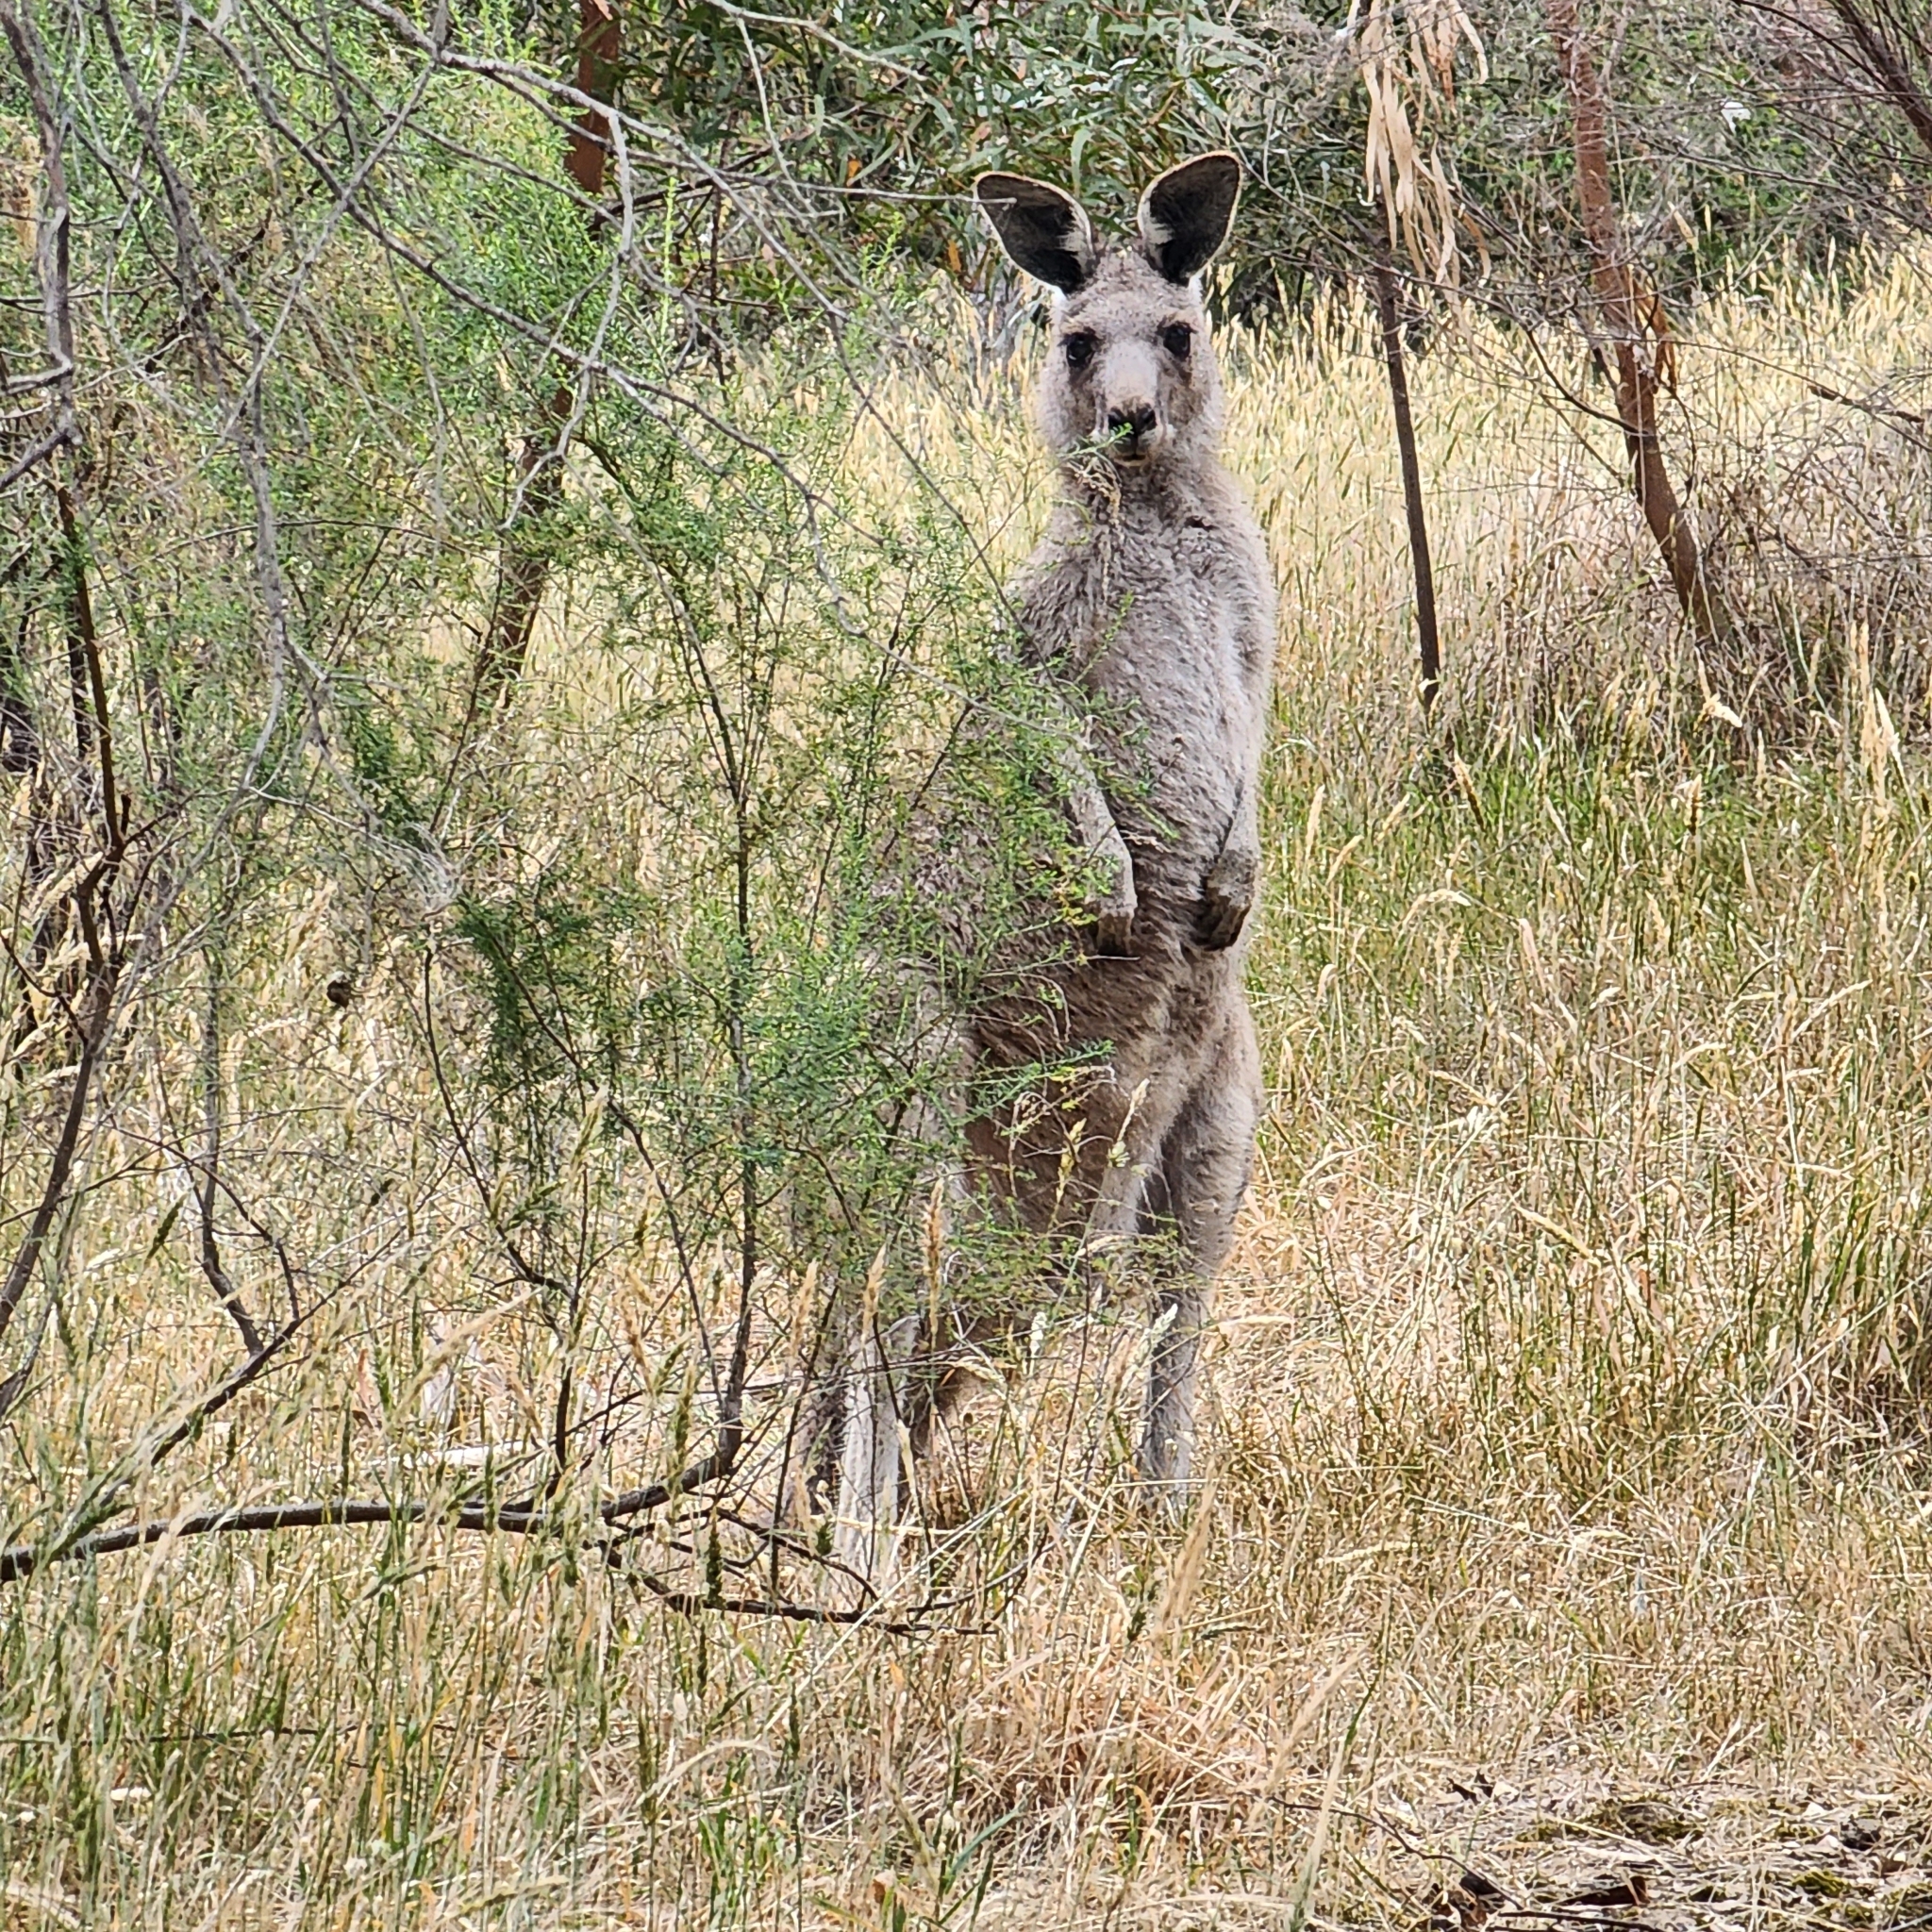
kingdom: Animalia
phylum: Chordata
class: Mammalia
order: Diprotodontia
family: Macropodidae
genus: Macropus
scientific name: Macropus giganteus
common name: Eastern grey kangaroo
